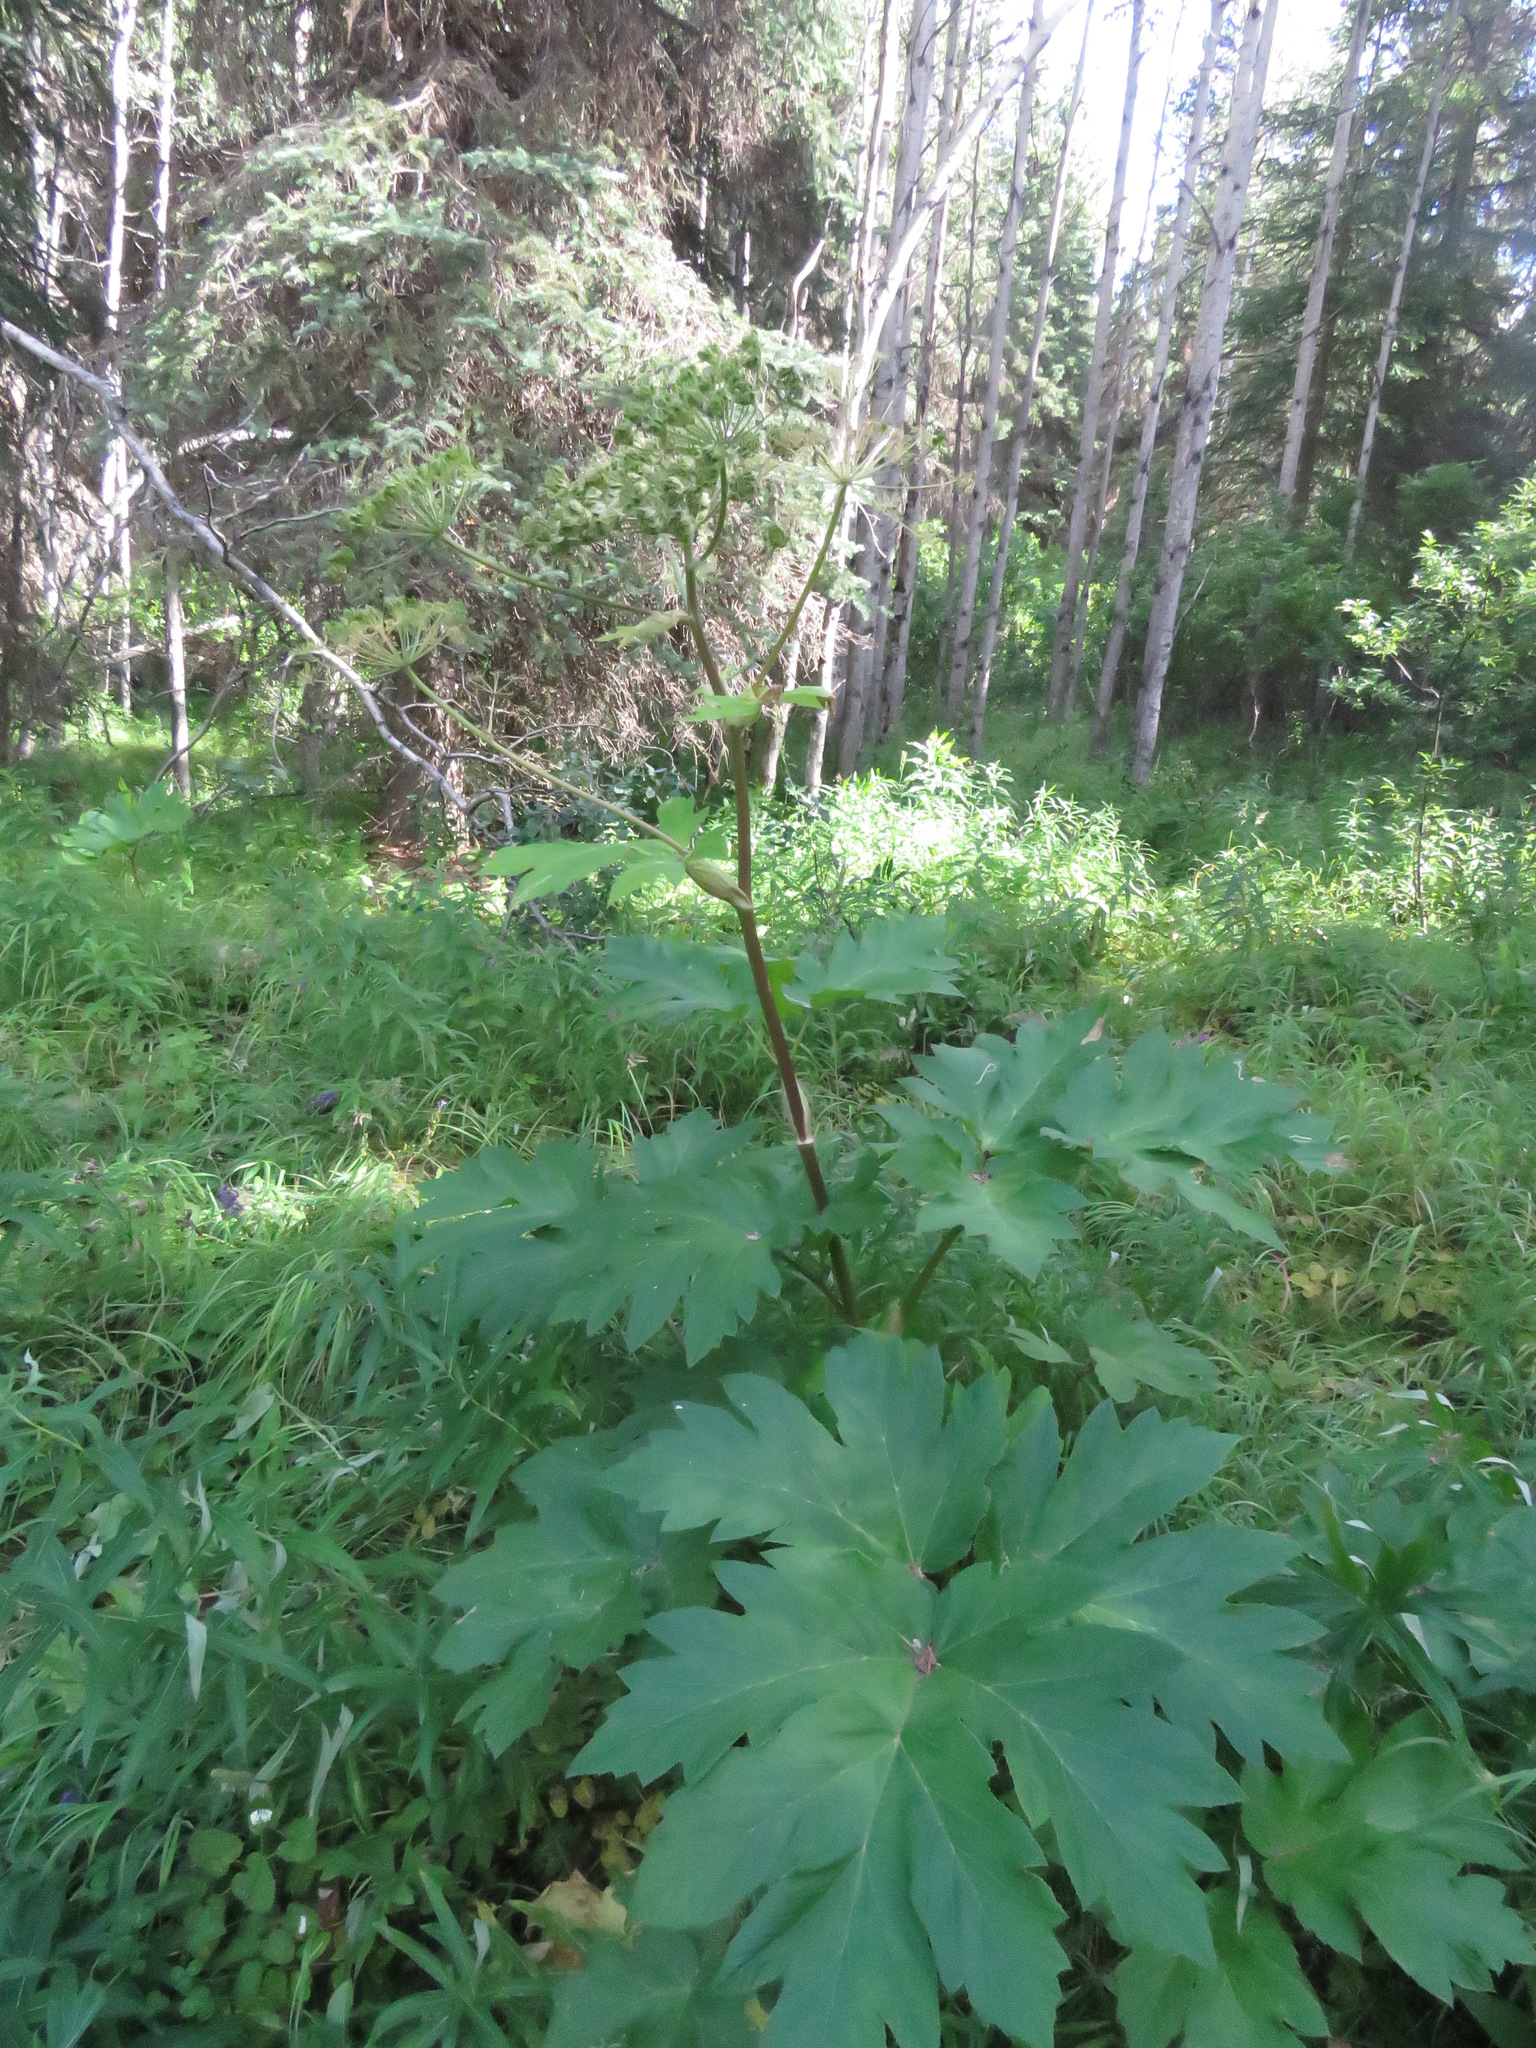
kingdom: Plantae
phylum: Tracheophyta
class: Magnoliopsida
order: Apiales
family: Apiaceae
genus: Heracleum
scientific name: Heracleum maximum
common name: American cow parsnip
